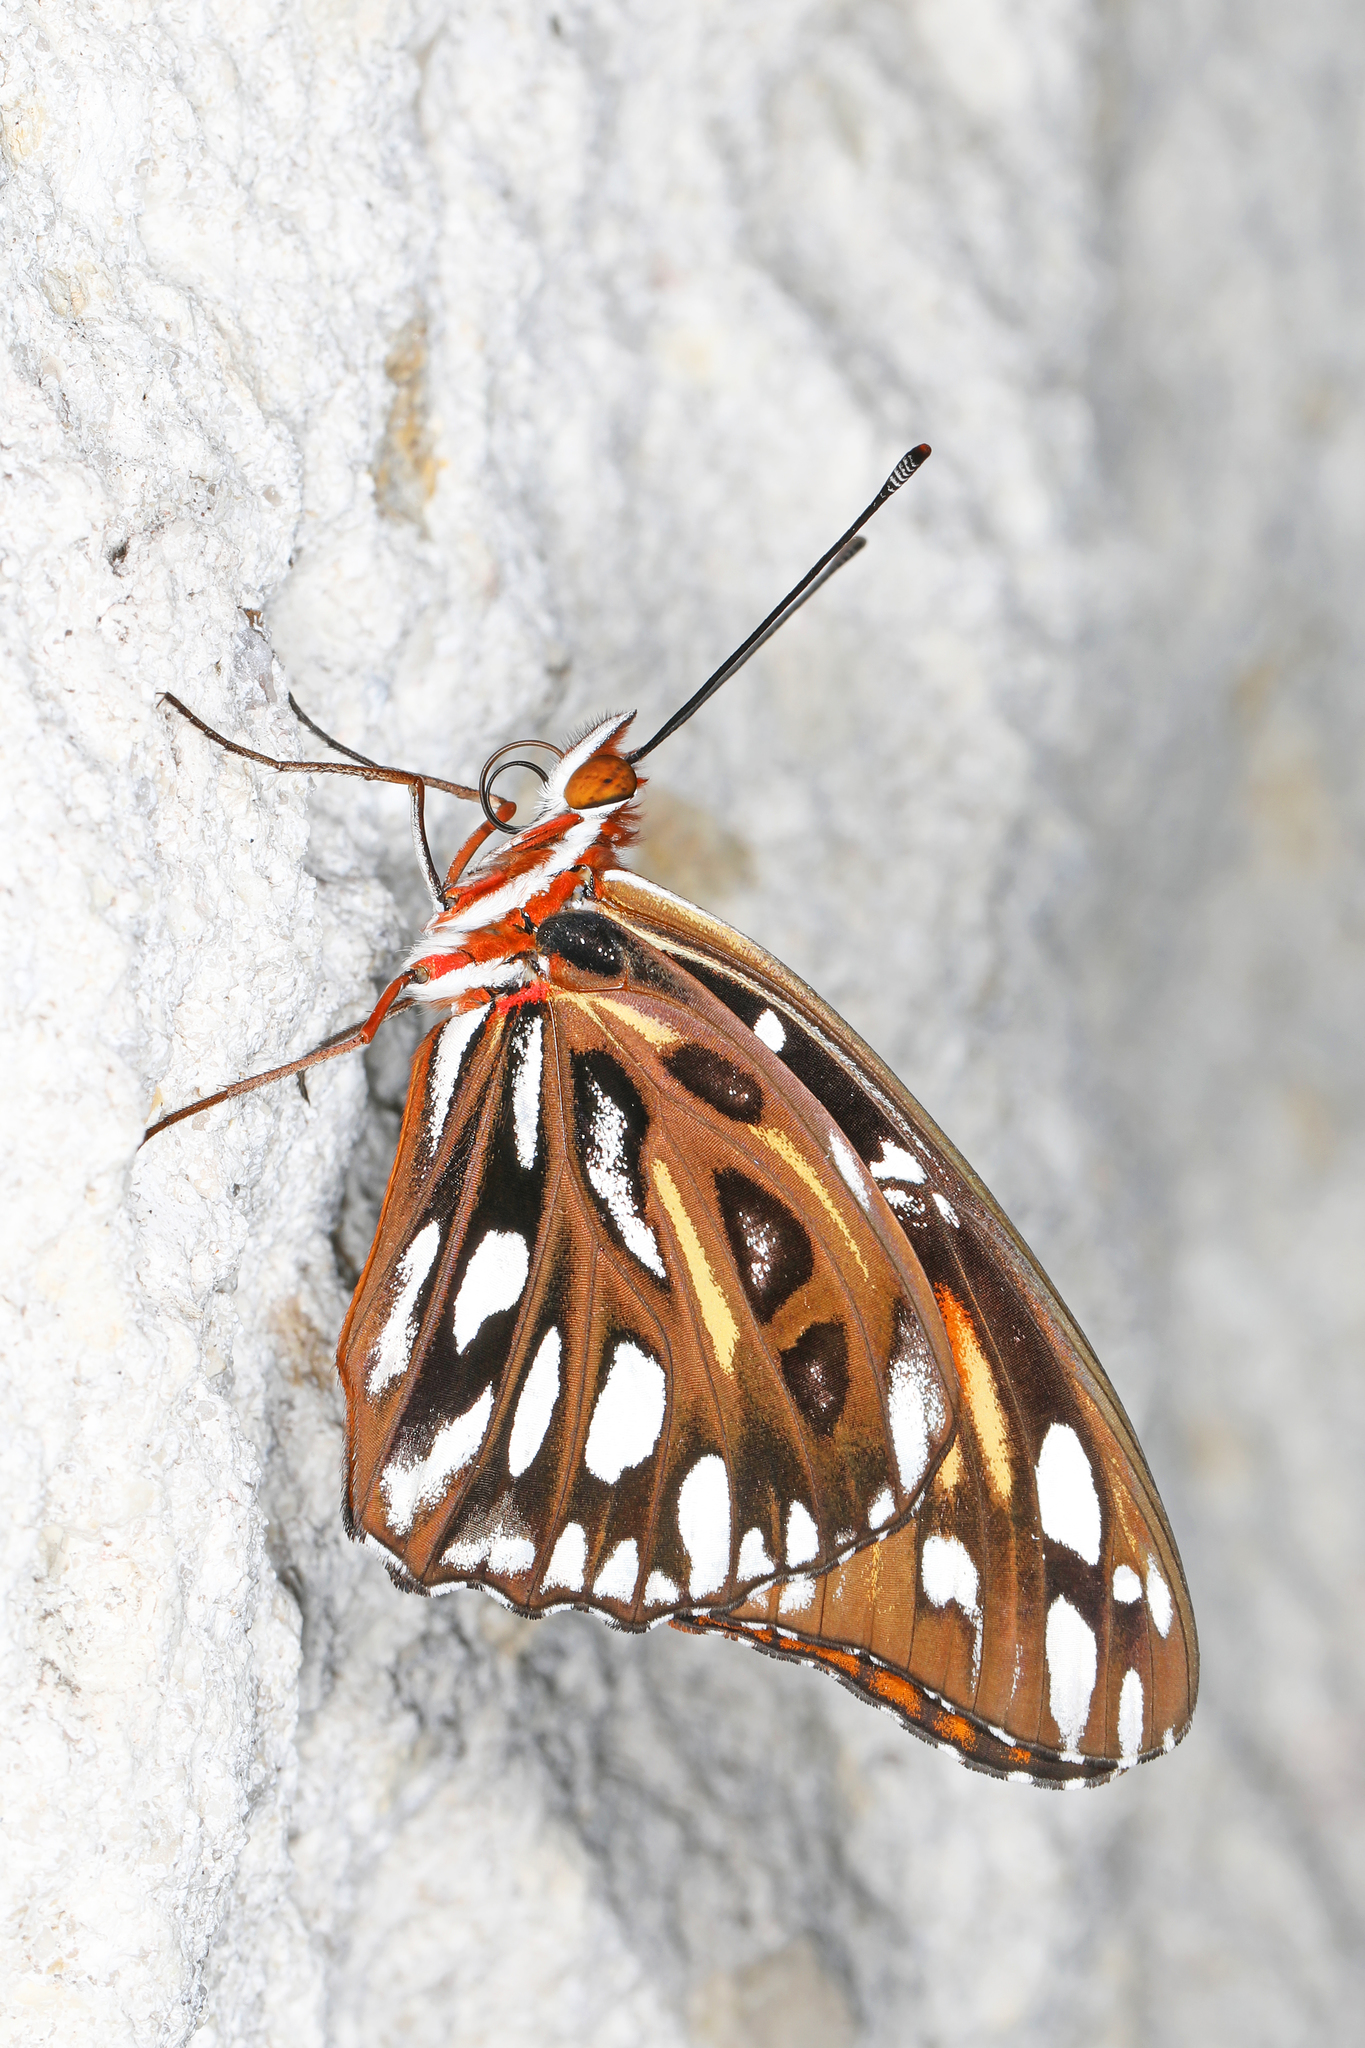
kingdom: Animalia
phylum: Arthropoda
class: Insecta
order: Lepidoptera
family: Nymphalidae
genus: Dione
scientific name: Dione vanillae
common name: Gulf fritillary
